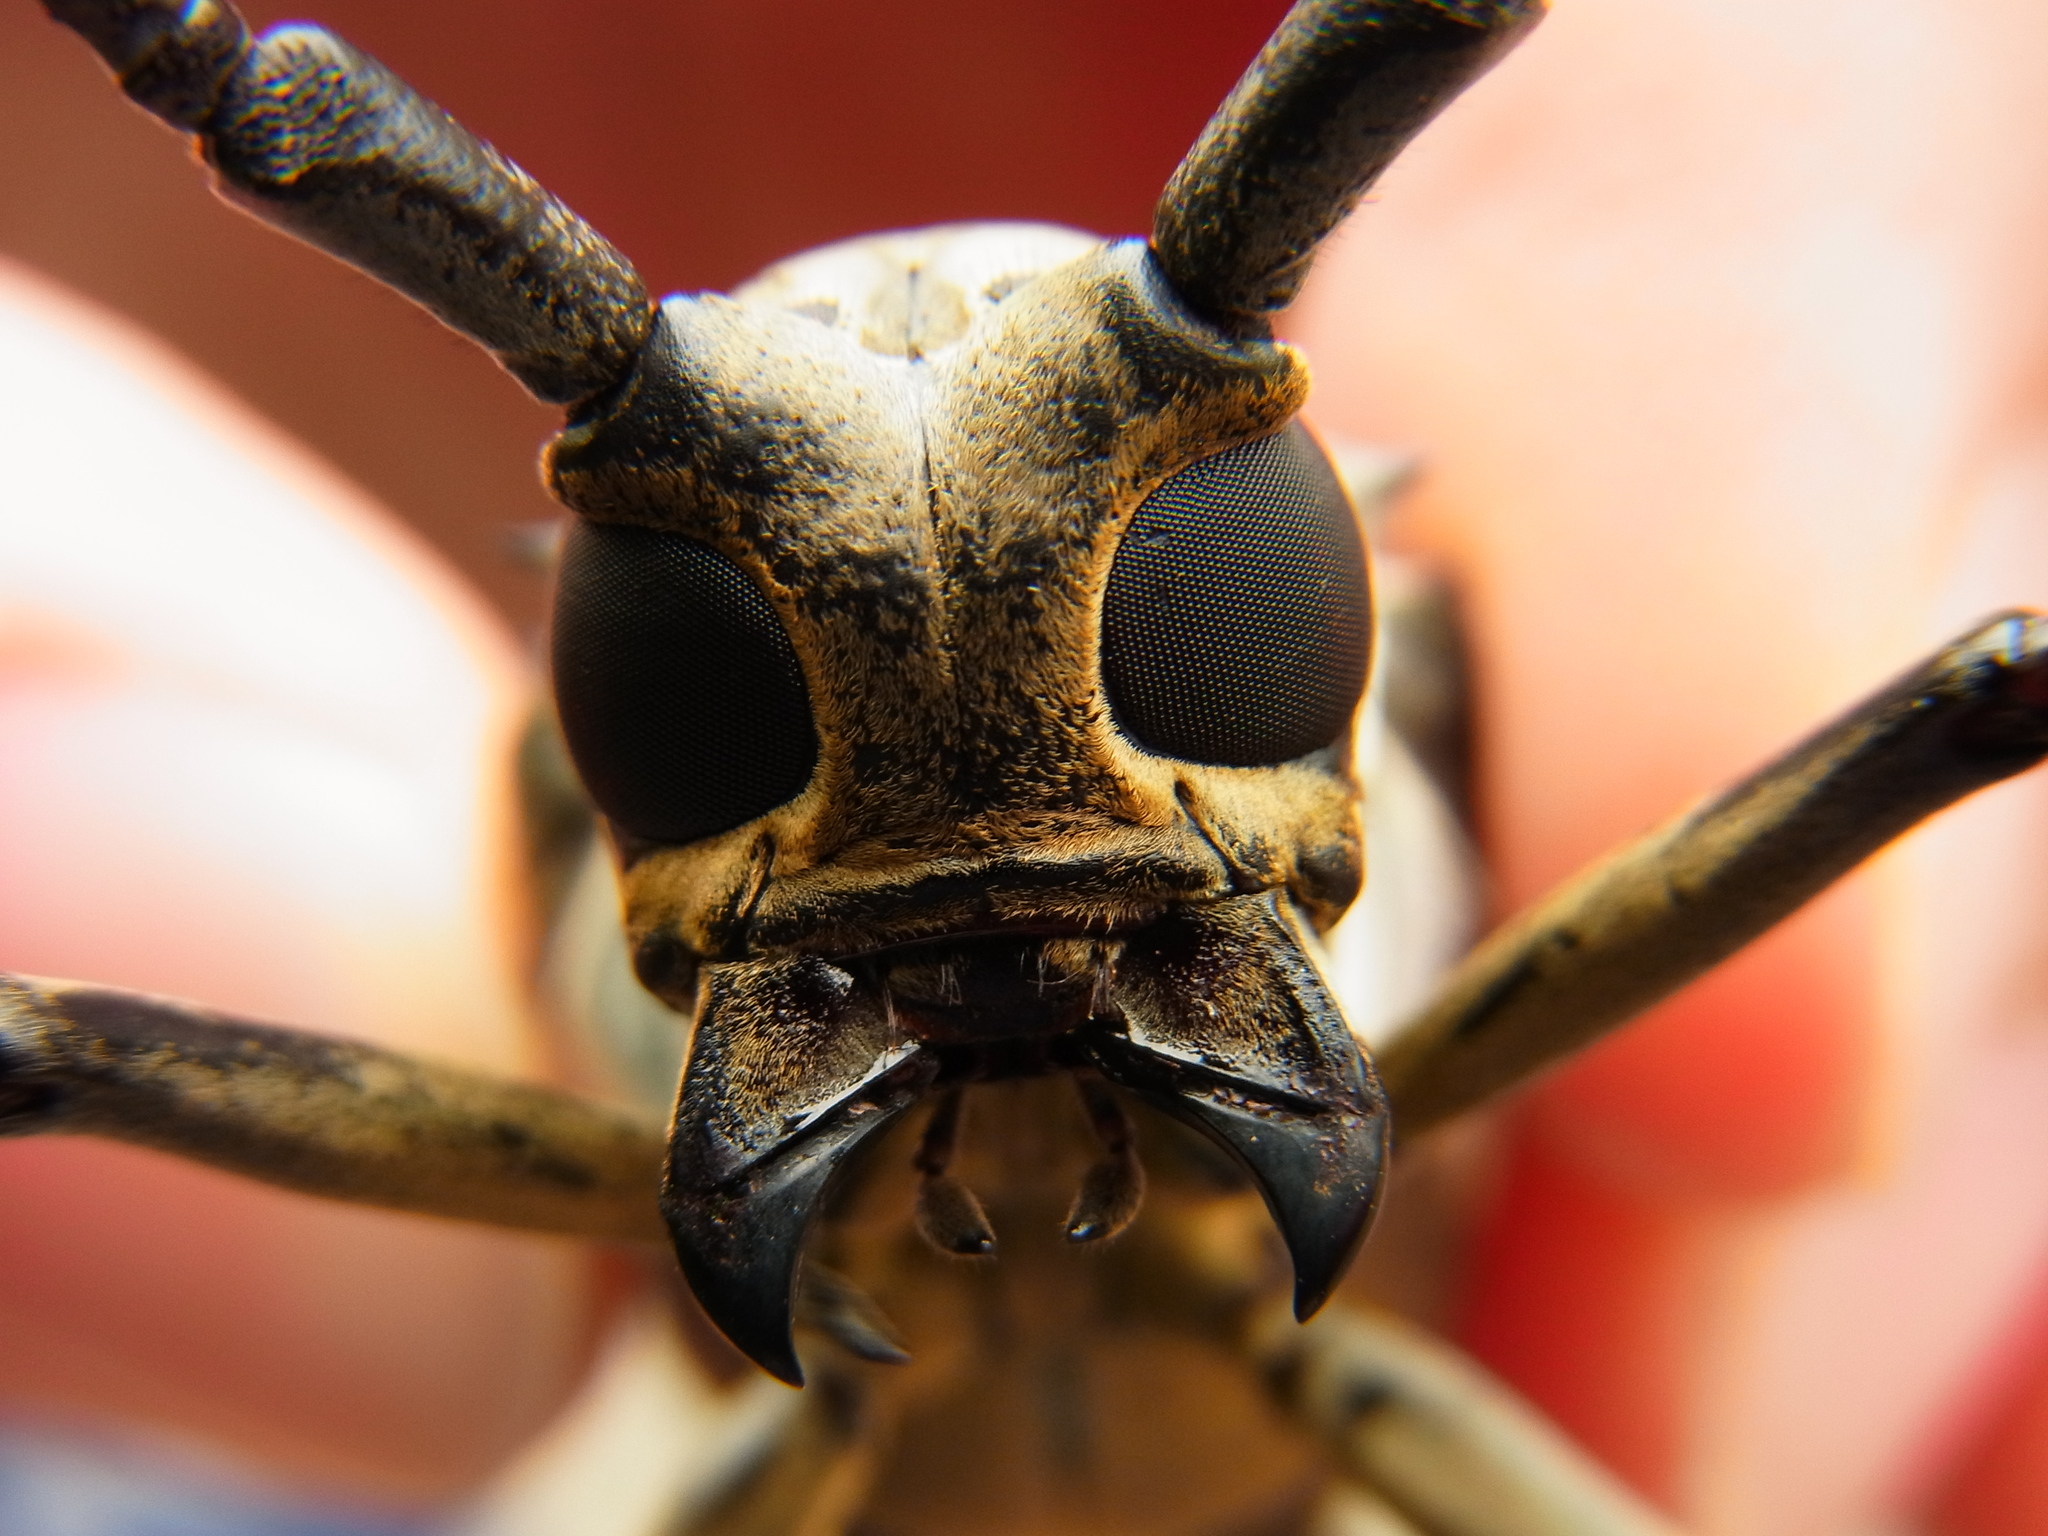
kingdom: Animalia
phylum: Arthropoda
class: Insecta
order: Coleoptera
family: Cerambycidae
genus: Batocera
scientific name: Batocera lineolata
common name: Whitestriped long-horned beetle
